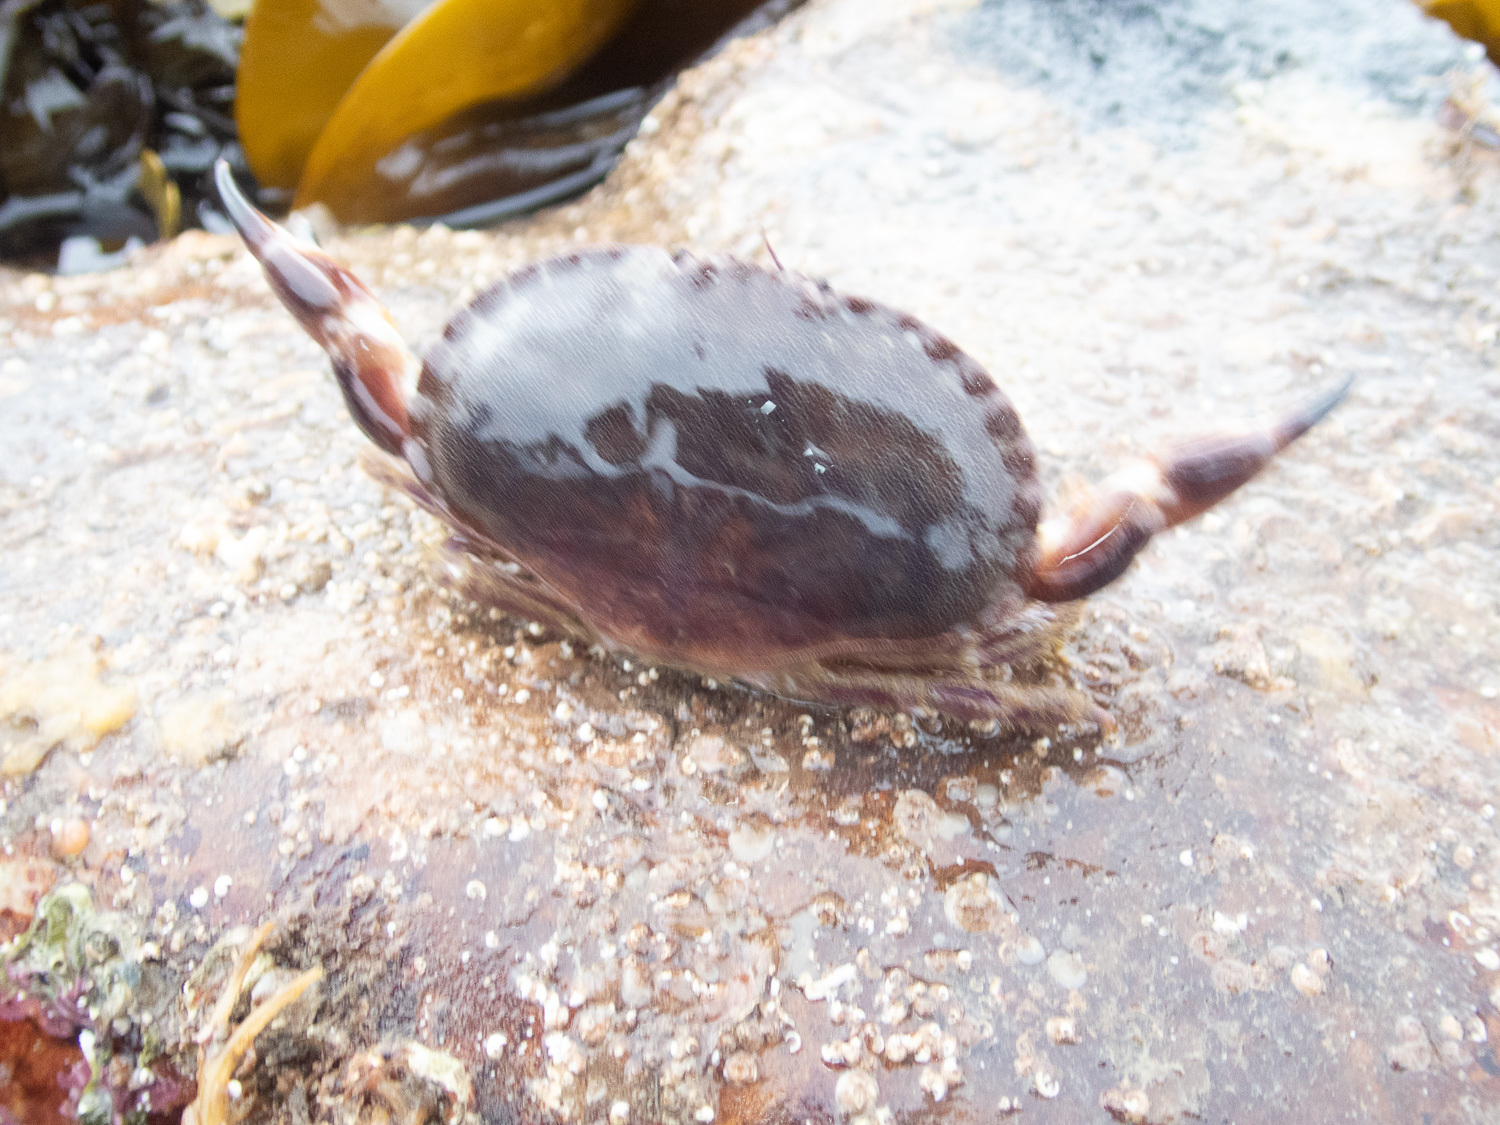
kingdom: Animalia
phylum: Arthropoda
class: Malacostraca
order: Decapoda
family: Cancridae
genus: Cancer
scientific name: Cancer pagurus
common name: Edible crab
